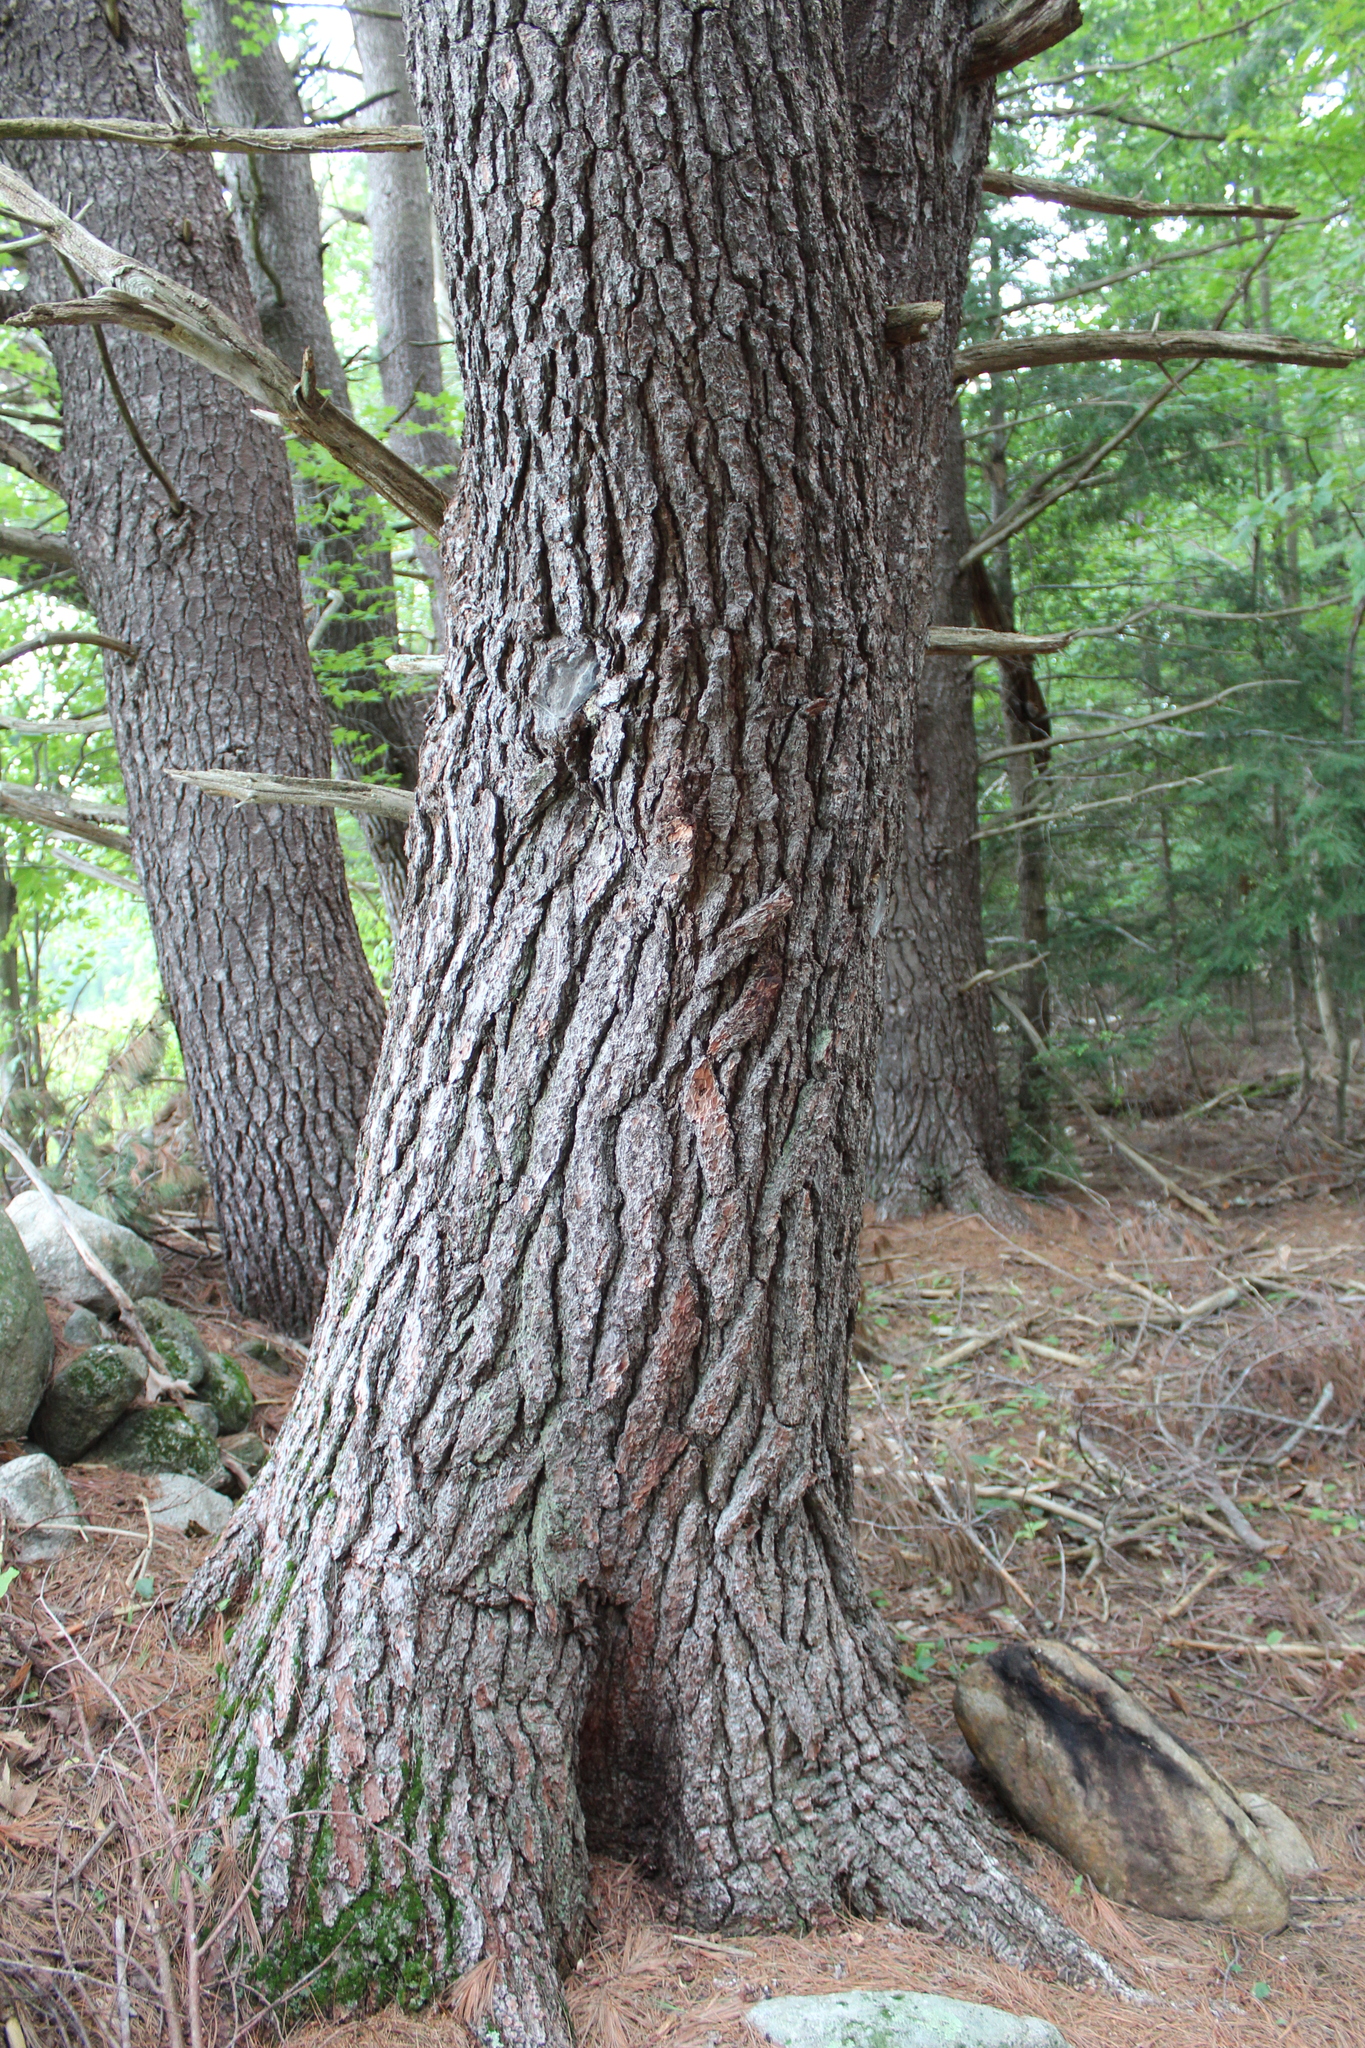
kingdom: Plantae
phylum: Tracheophyta
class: Pinopsida
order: Pinales
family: Pinaceae
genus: Pinus
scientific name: Pinus strobus
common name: Weymouth pine
